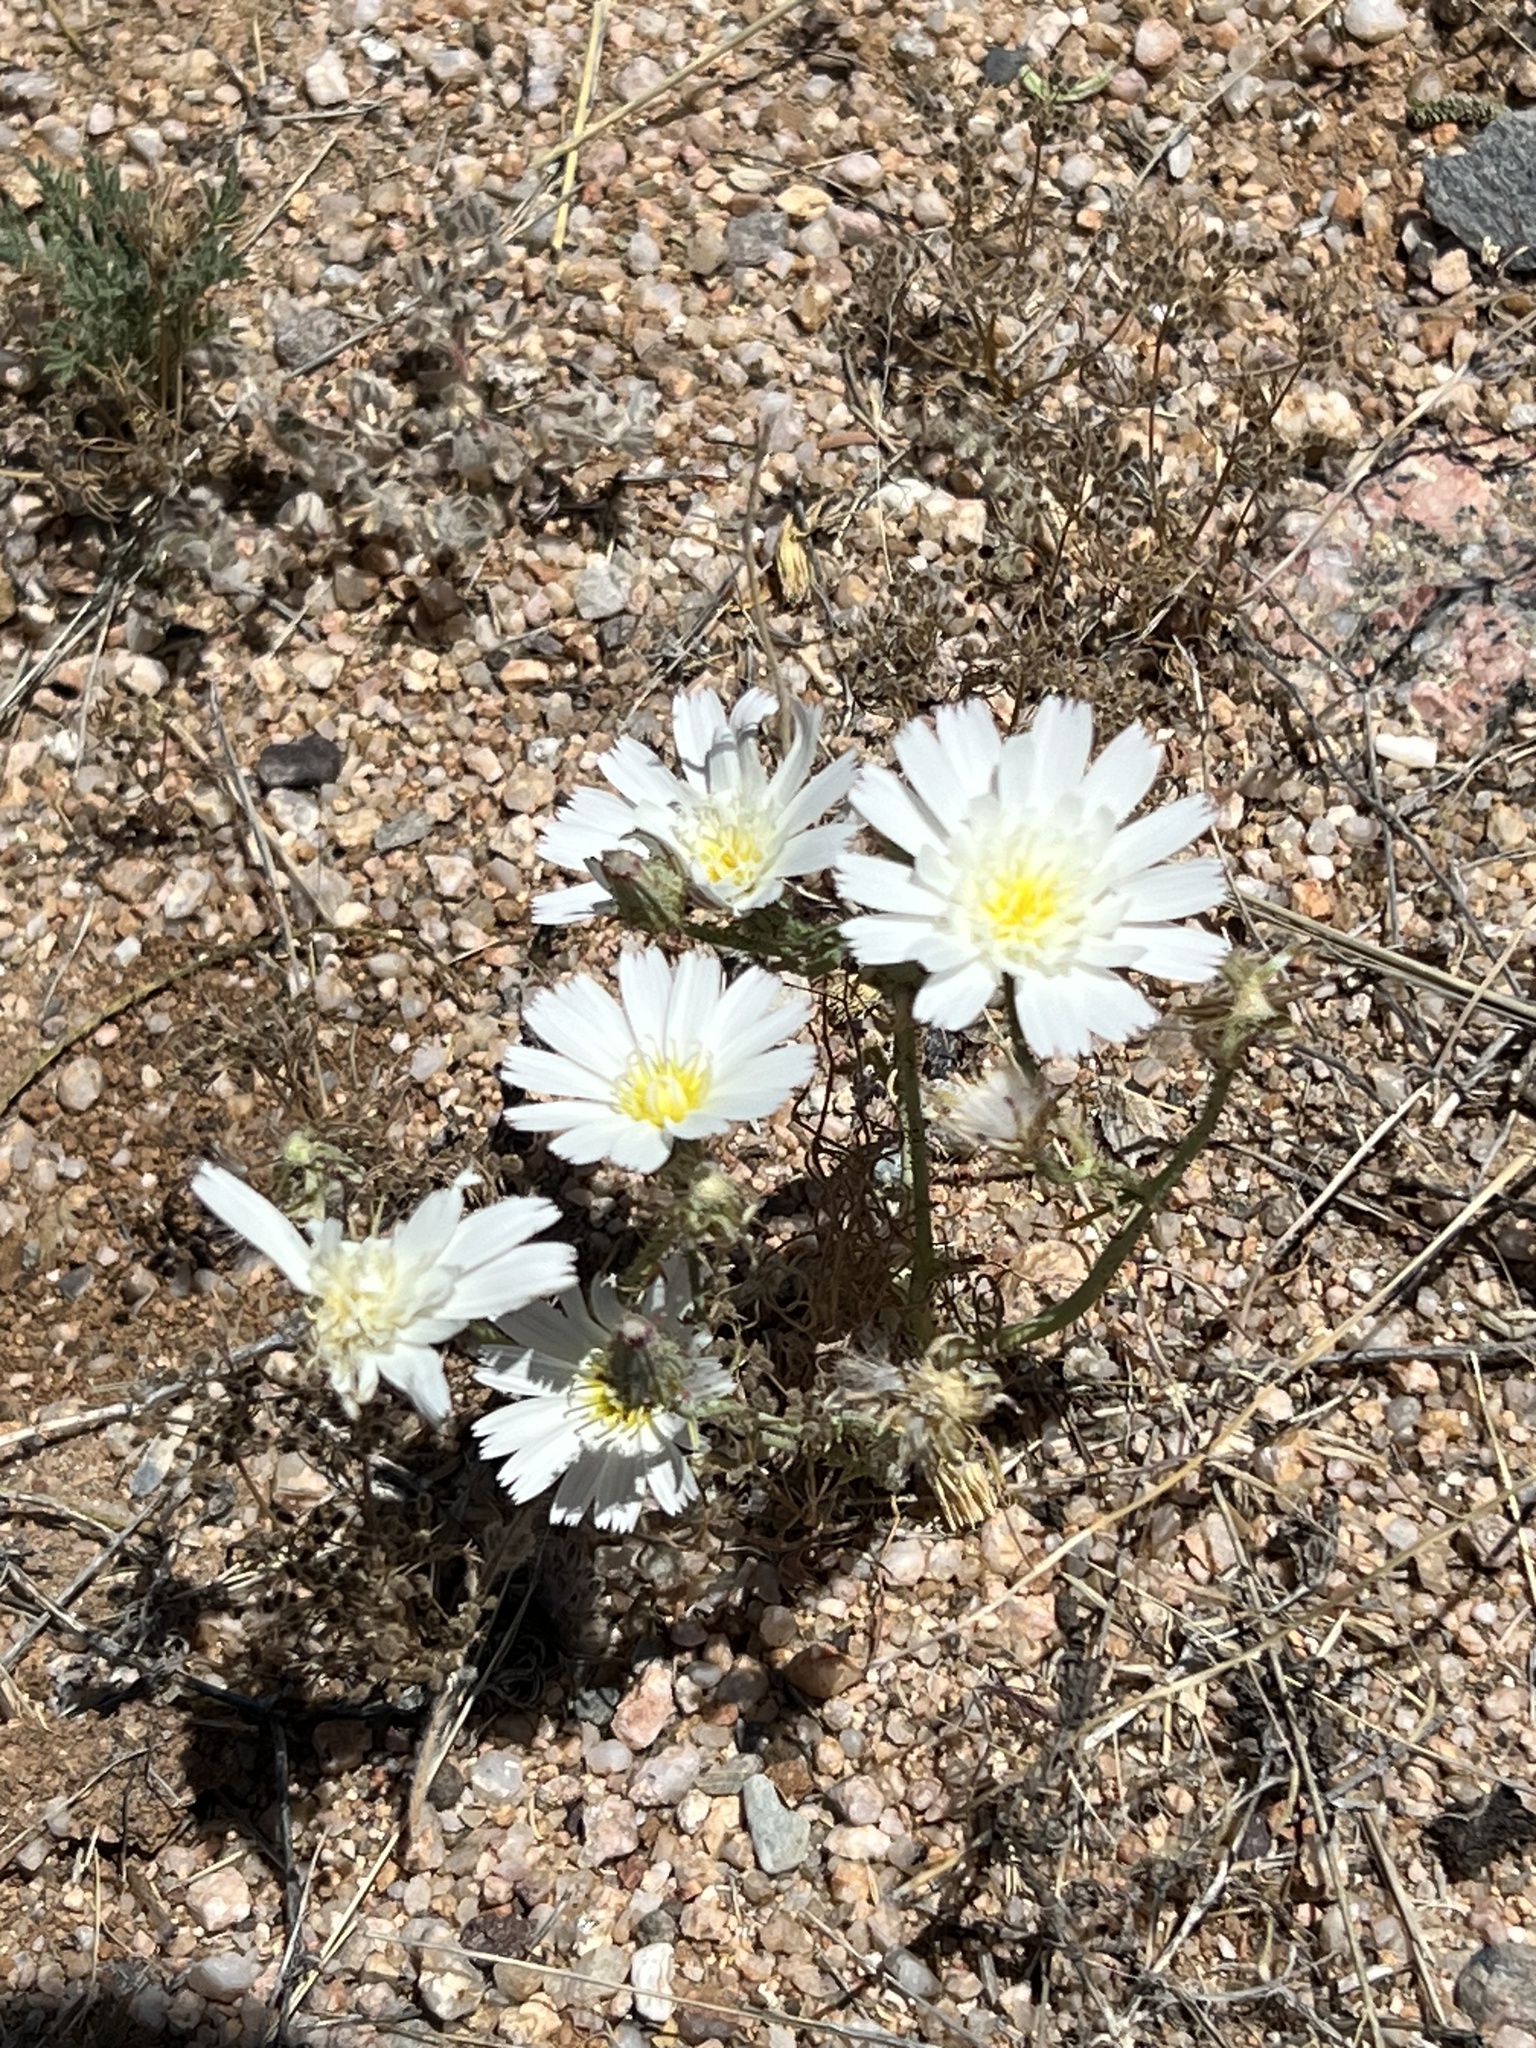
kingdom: Plantae
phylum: Tracheophyta
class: Magnoliopsida
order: Asterales
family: Asteraceae
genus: Calycoseris
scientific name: Calycoseris wrightii
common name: White tackstem
